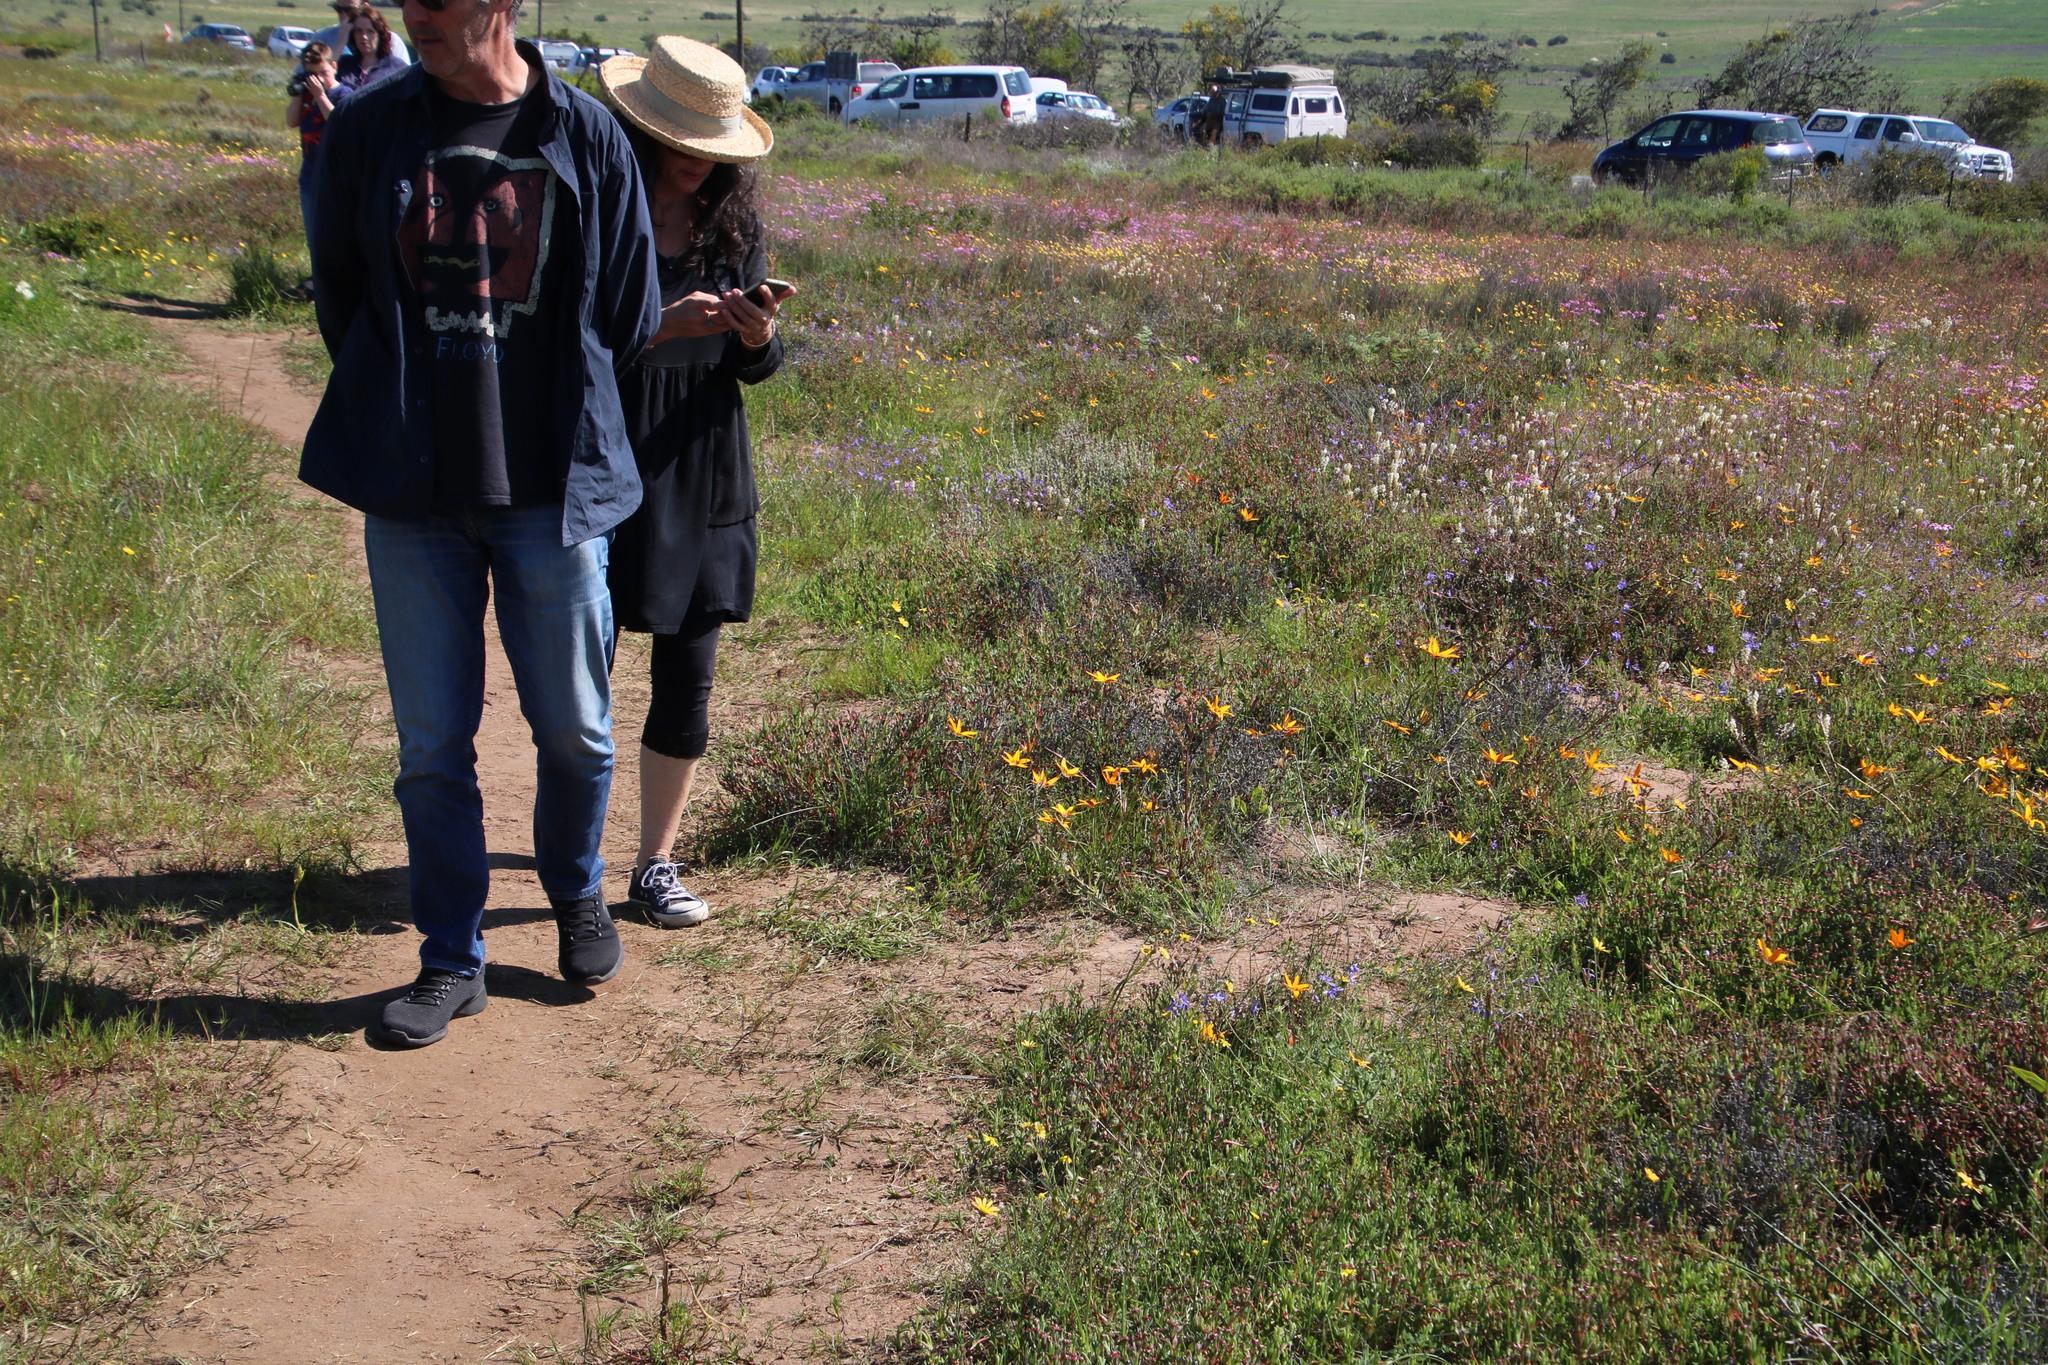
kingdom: Plantae
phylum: Tracheophyta
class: Liliopsida
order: Asparagales
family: Hypoxidaceae
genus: Pauridia
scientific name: Pauridia canaliculata
